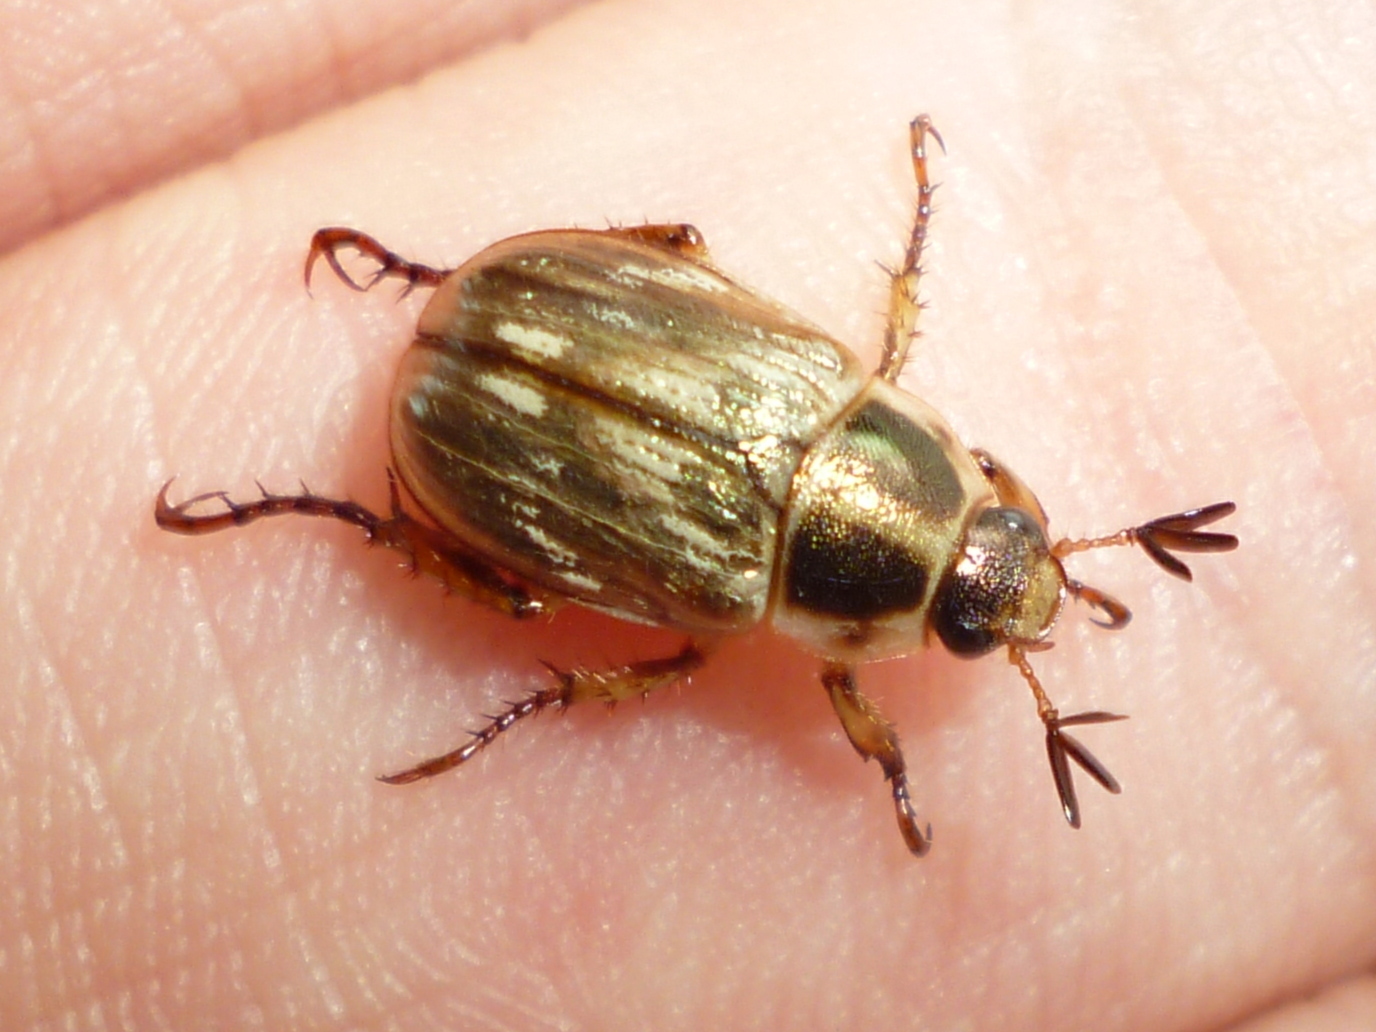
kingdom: Animalia
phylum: Arthropoda
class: Insecta
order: Coleoptera
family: Scarabaeidae
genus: Exomala
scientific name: Exomala orientalis
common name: Oriental beetle
